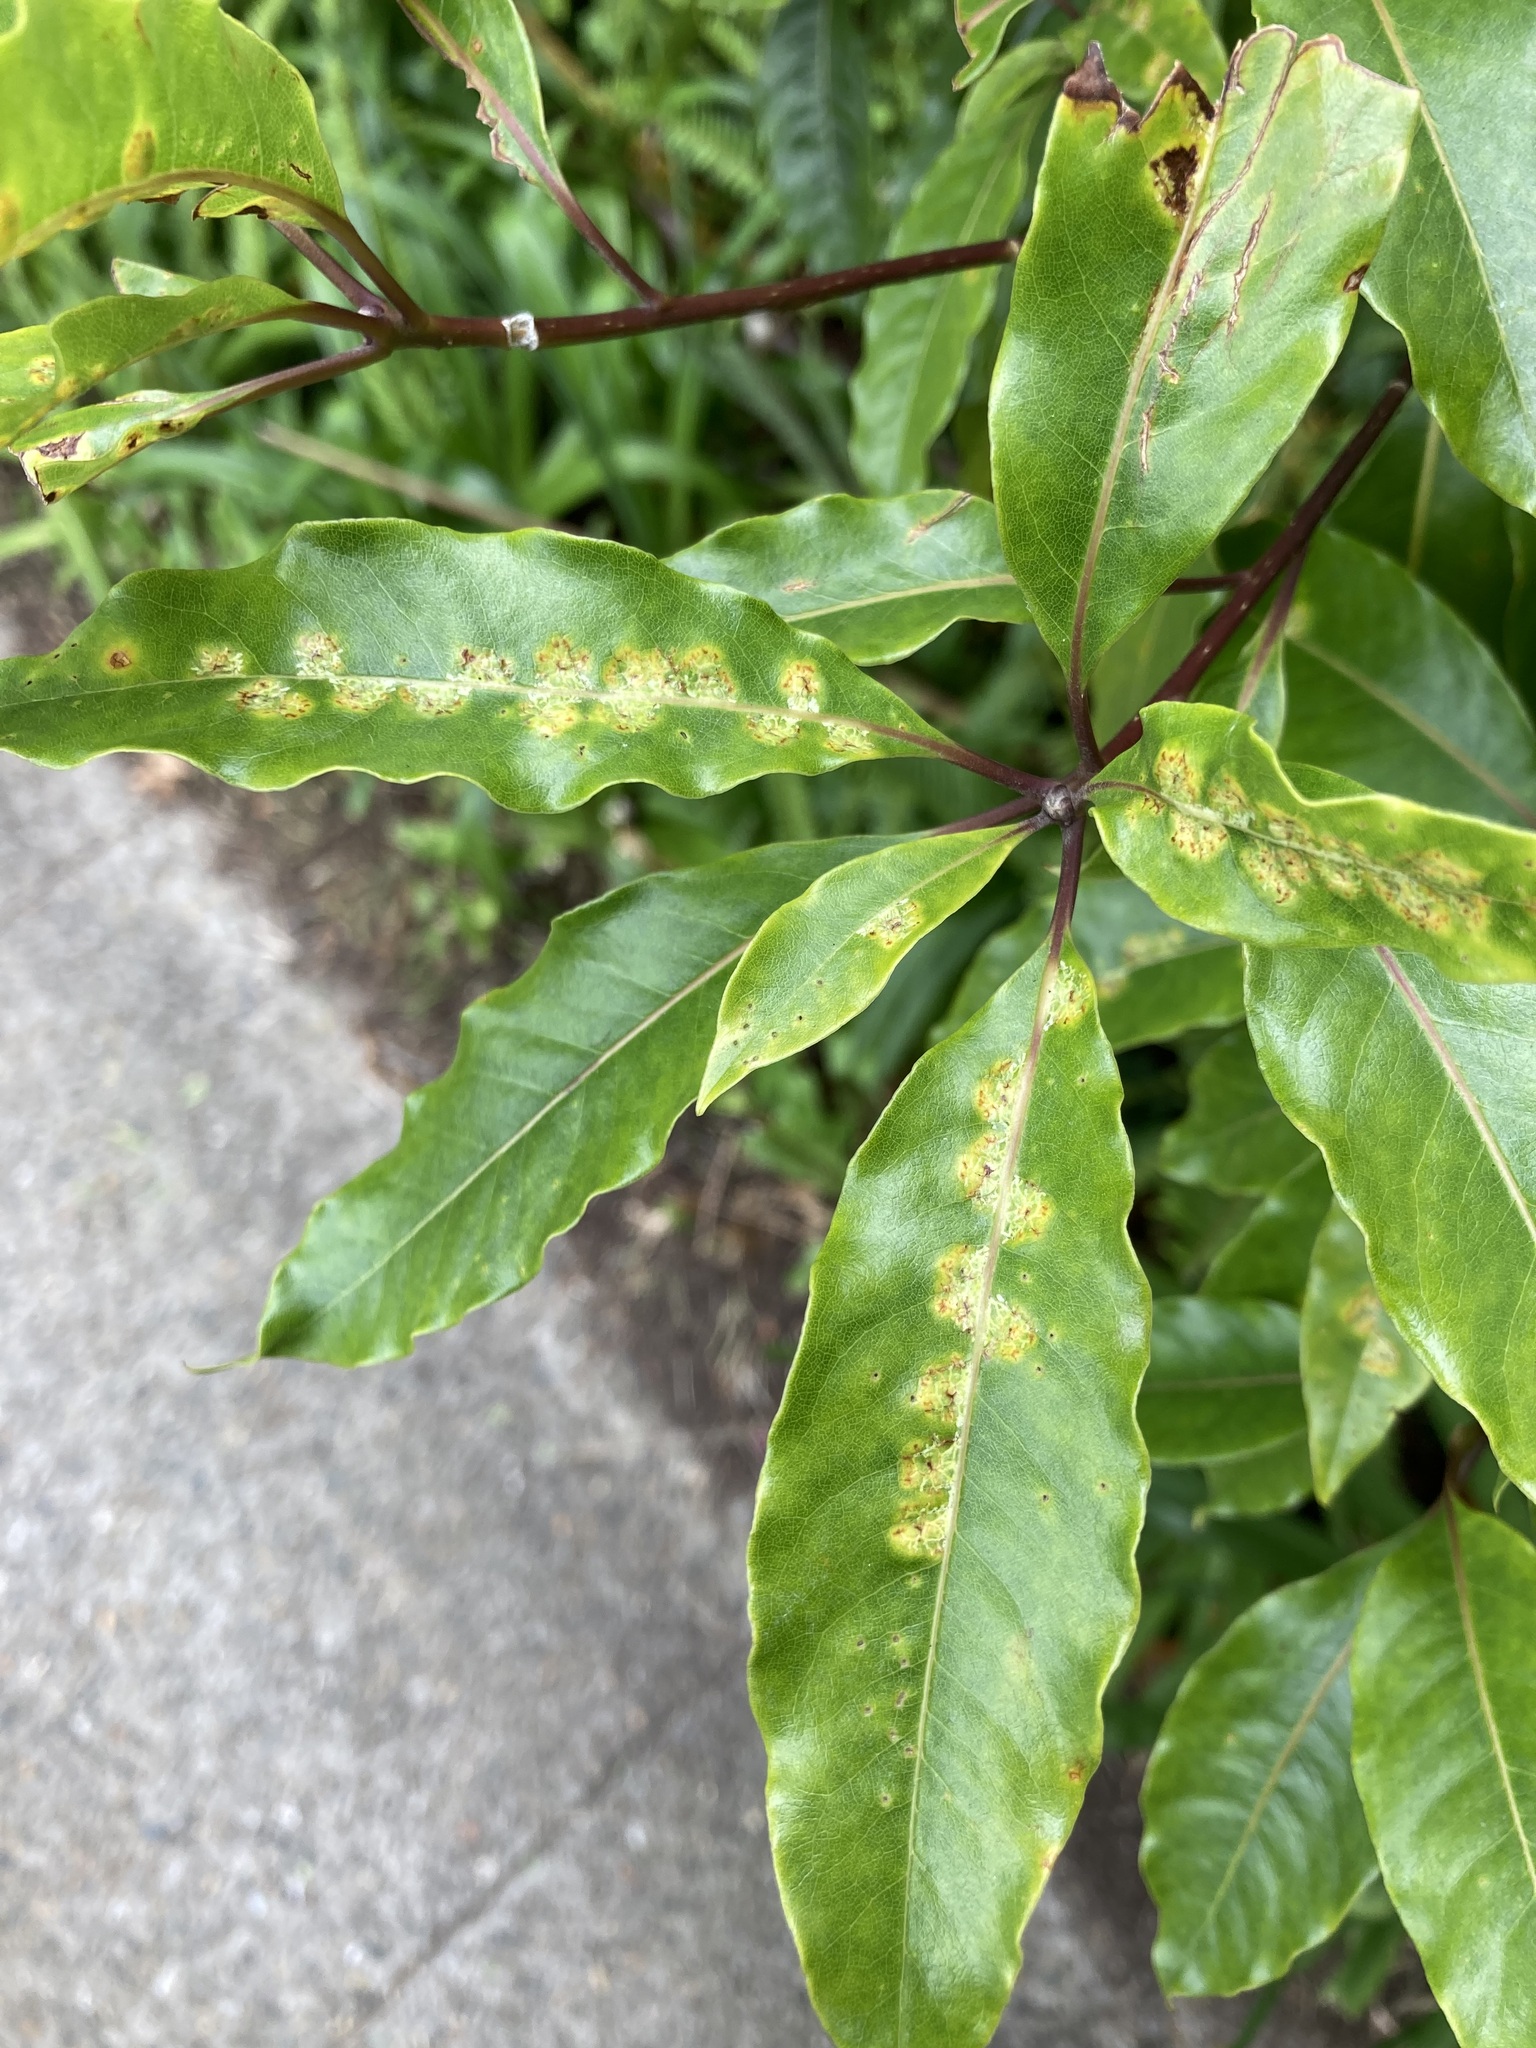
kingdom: Animalia
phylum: Arthropoda
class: Insecta
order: Diptera
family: Agromyzidae
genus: Phytoliriomyza
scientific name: Phytoliriomyza pittosporophylli
